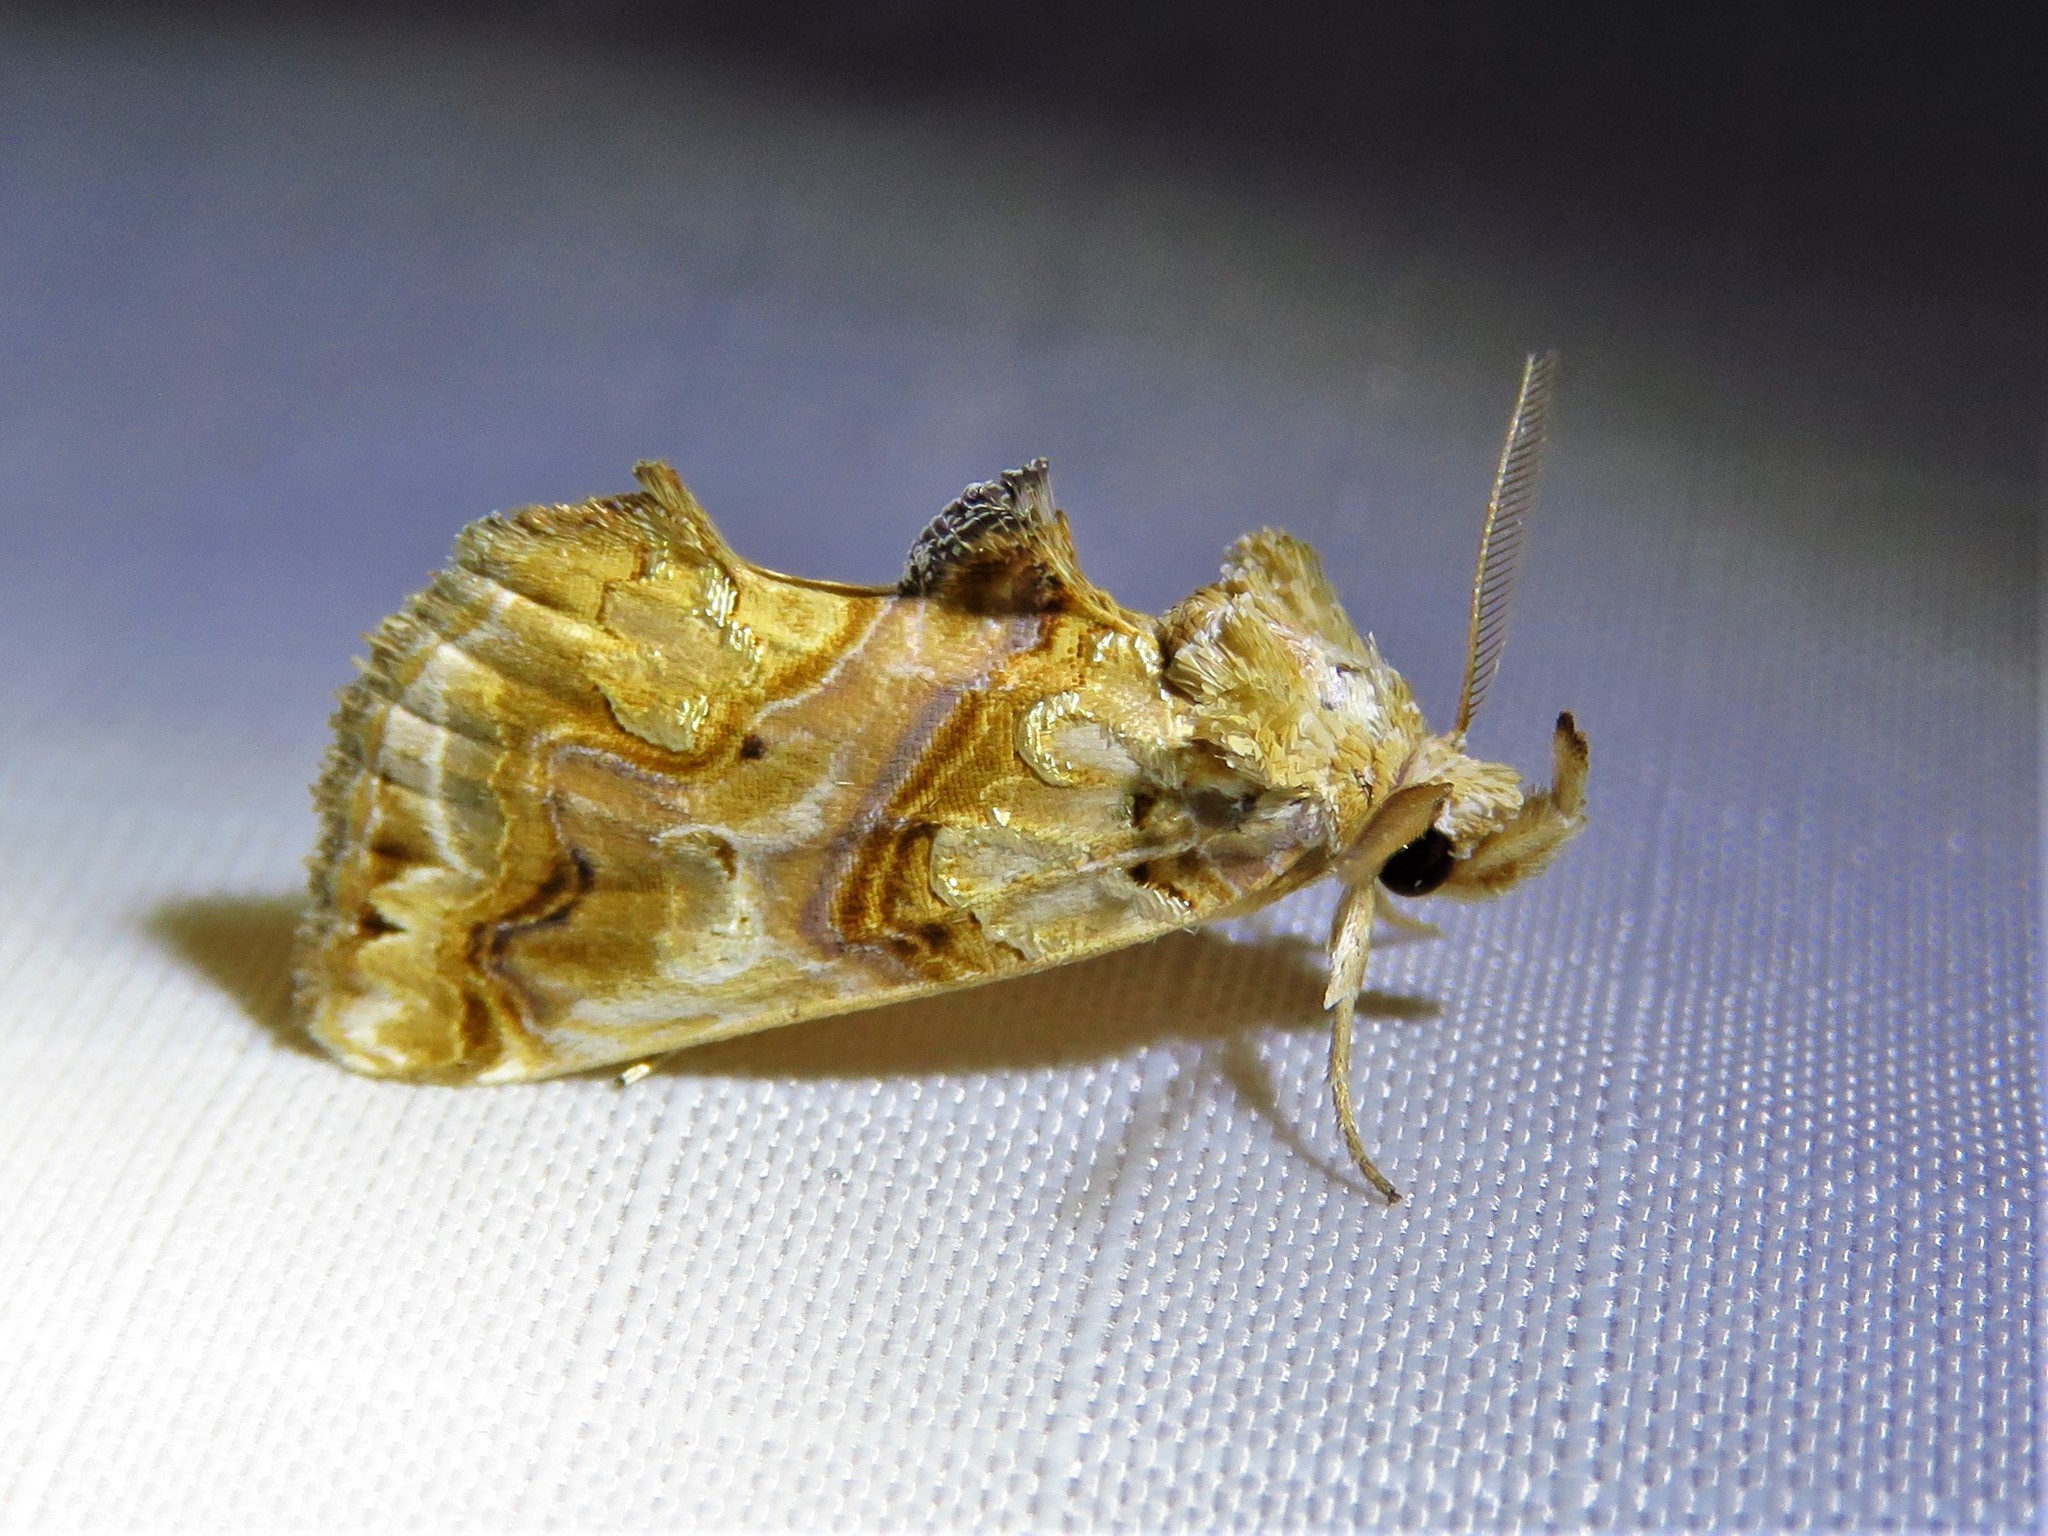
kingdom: Animalia
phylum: Arthropoda
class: Insecta
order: Lepidoptera
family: Erebidae
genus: Plusiodonta
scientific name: Plusiodonta compressipalpis
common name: Moonseed moth
